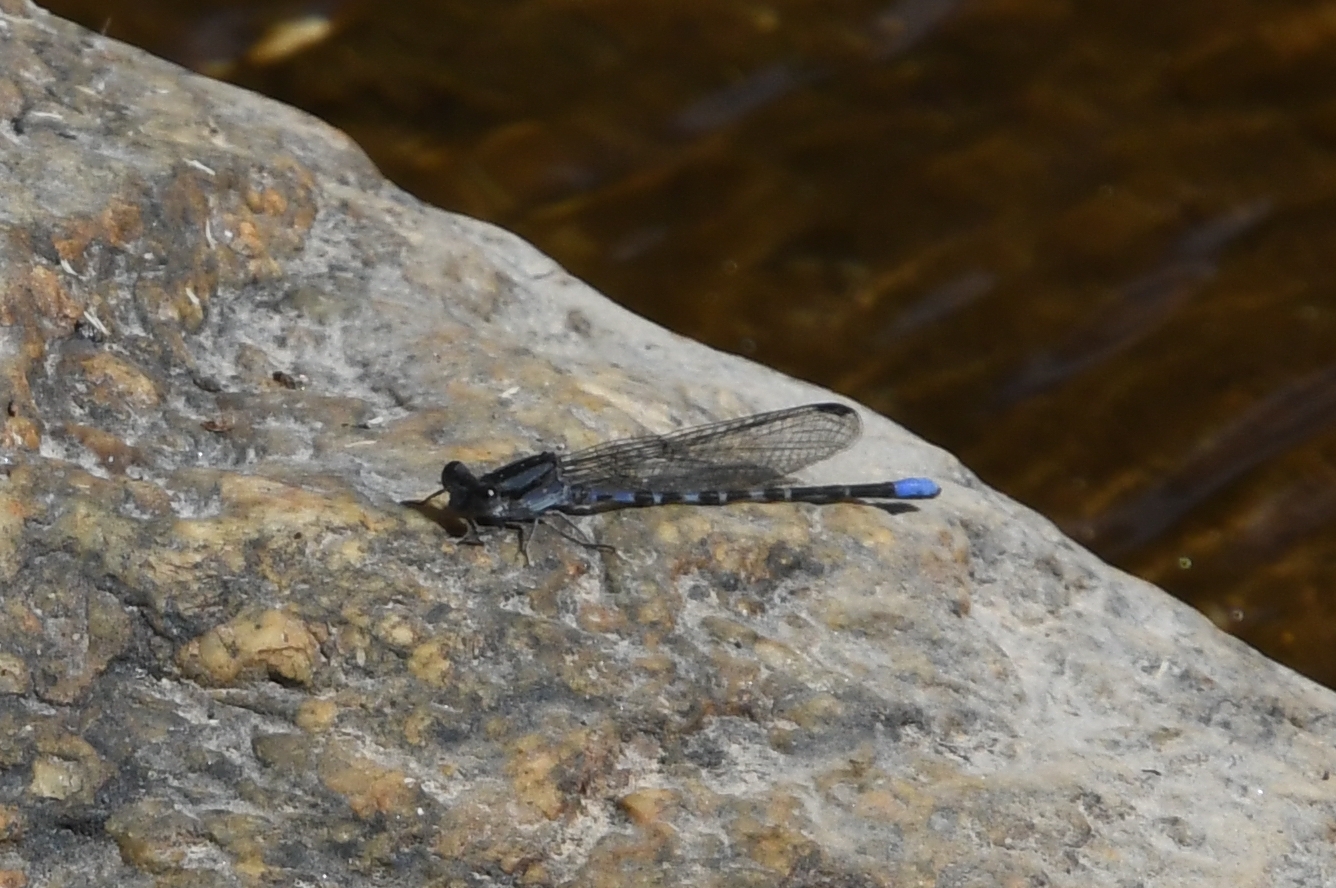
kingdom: Animalia
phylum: Arthropoda
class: Insecta
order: Odonata
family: Coenagrionidae
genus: Argia
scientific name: Argia immunda
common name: Kiowa dancer
